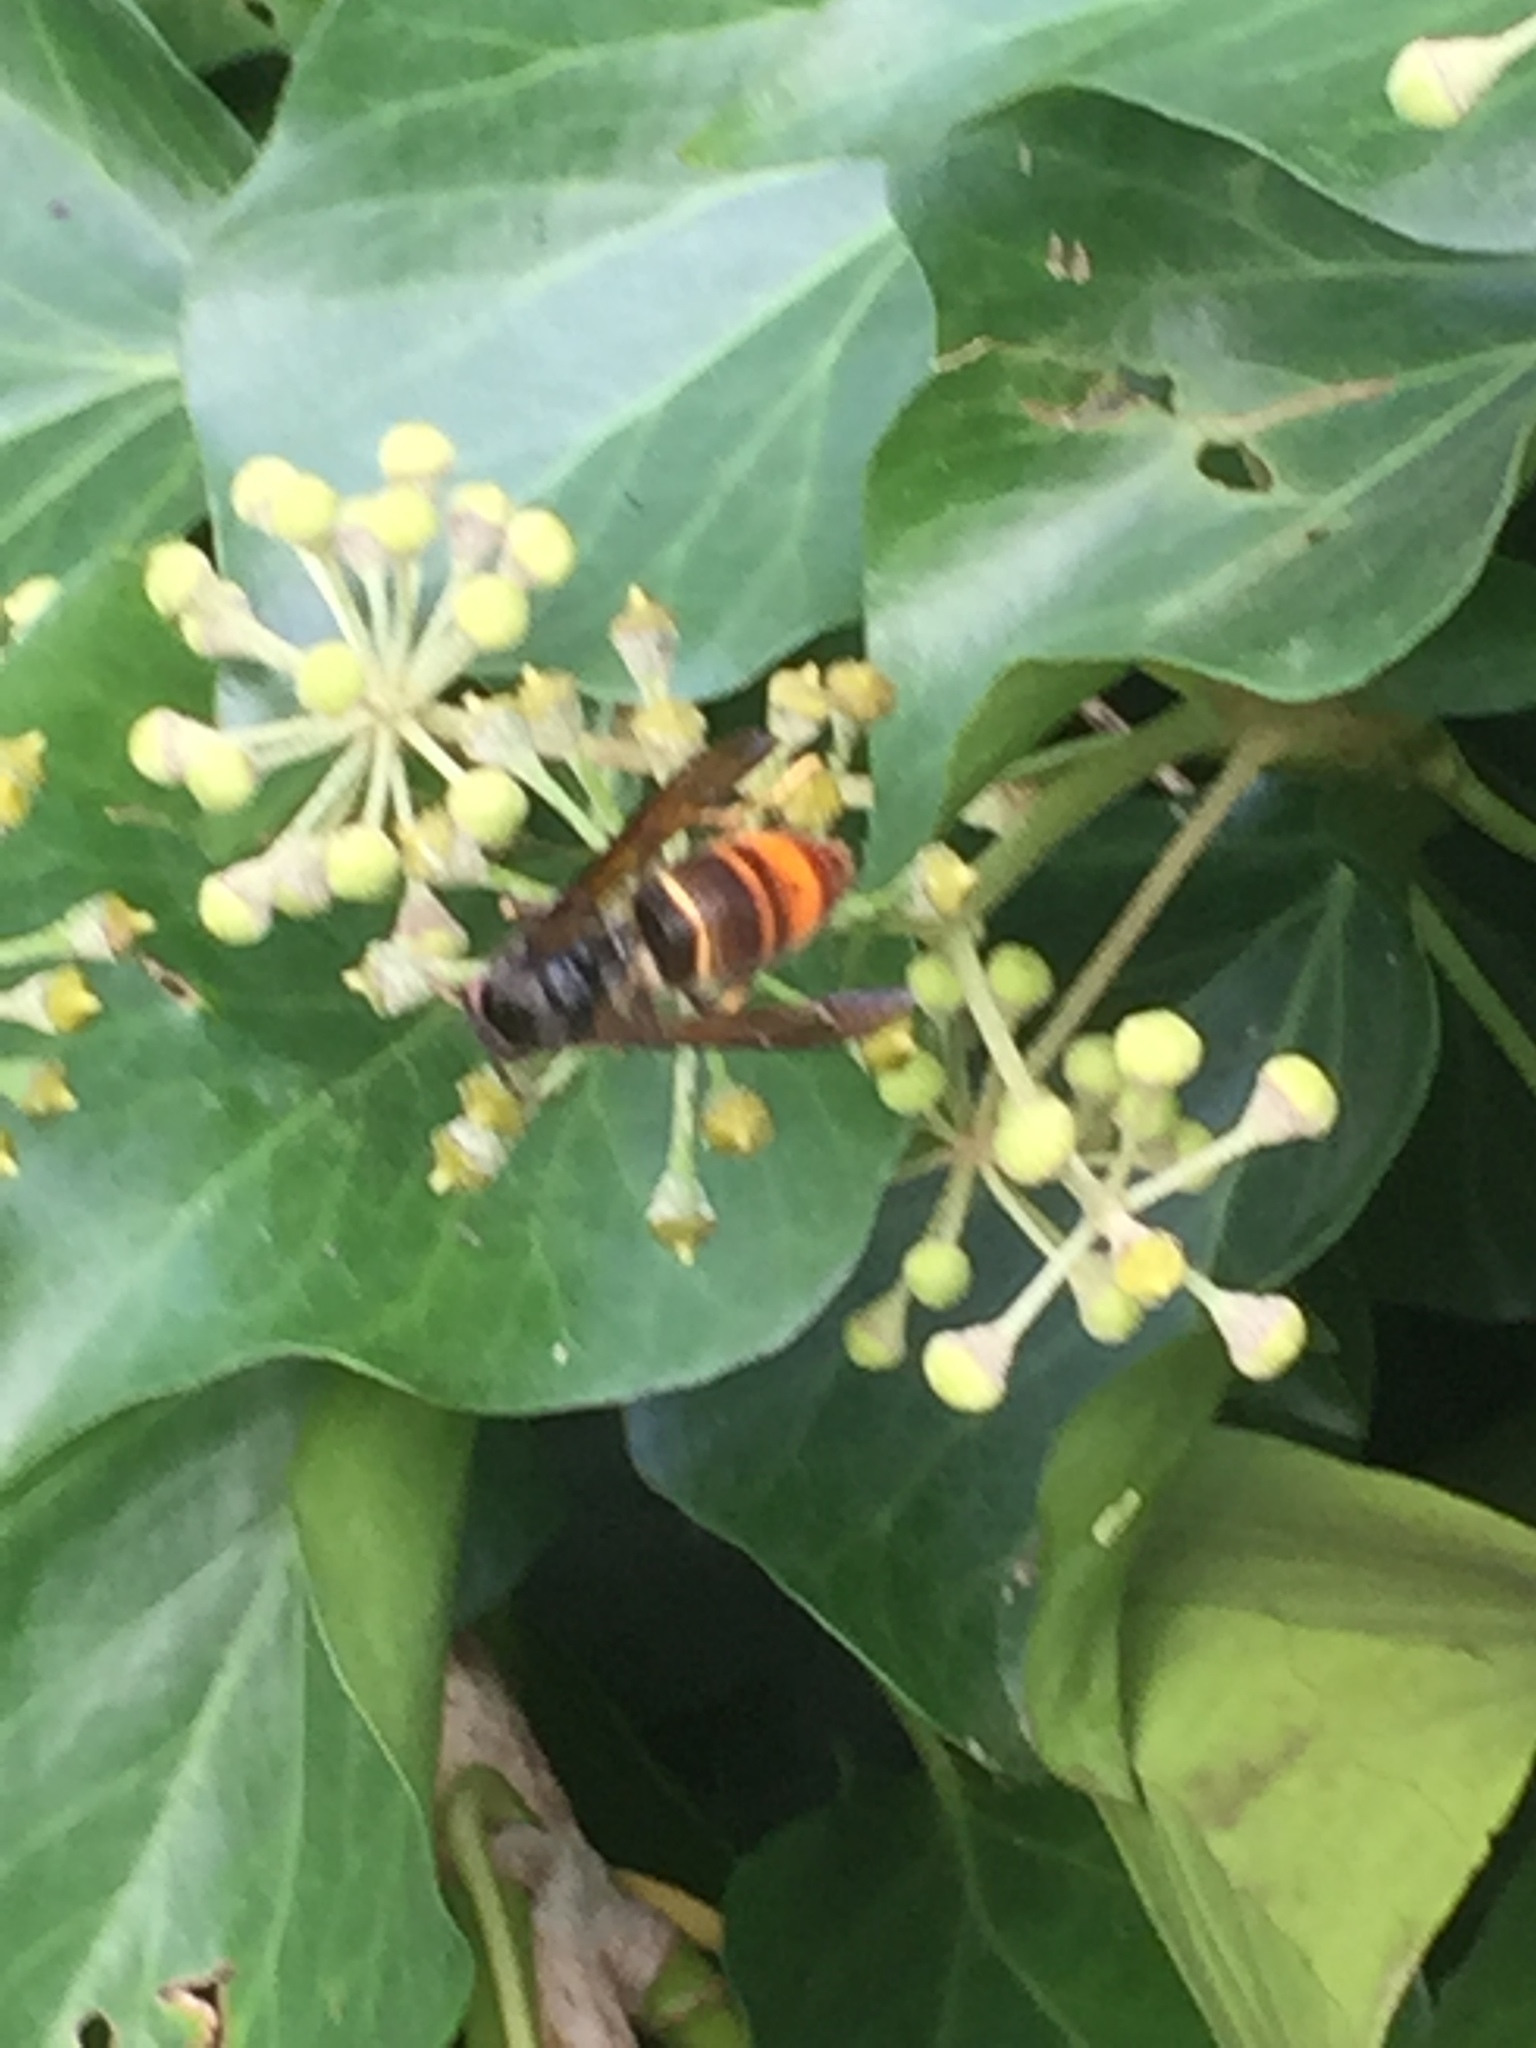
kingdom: Animalia
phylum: Arthropoda
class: Insecta
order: Hymenoptera
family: Vespidae
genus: Vespa
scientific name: Vespa velutina
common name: Asian hornet
